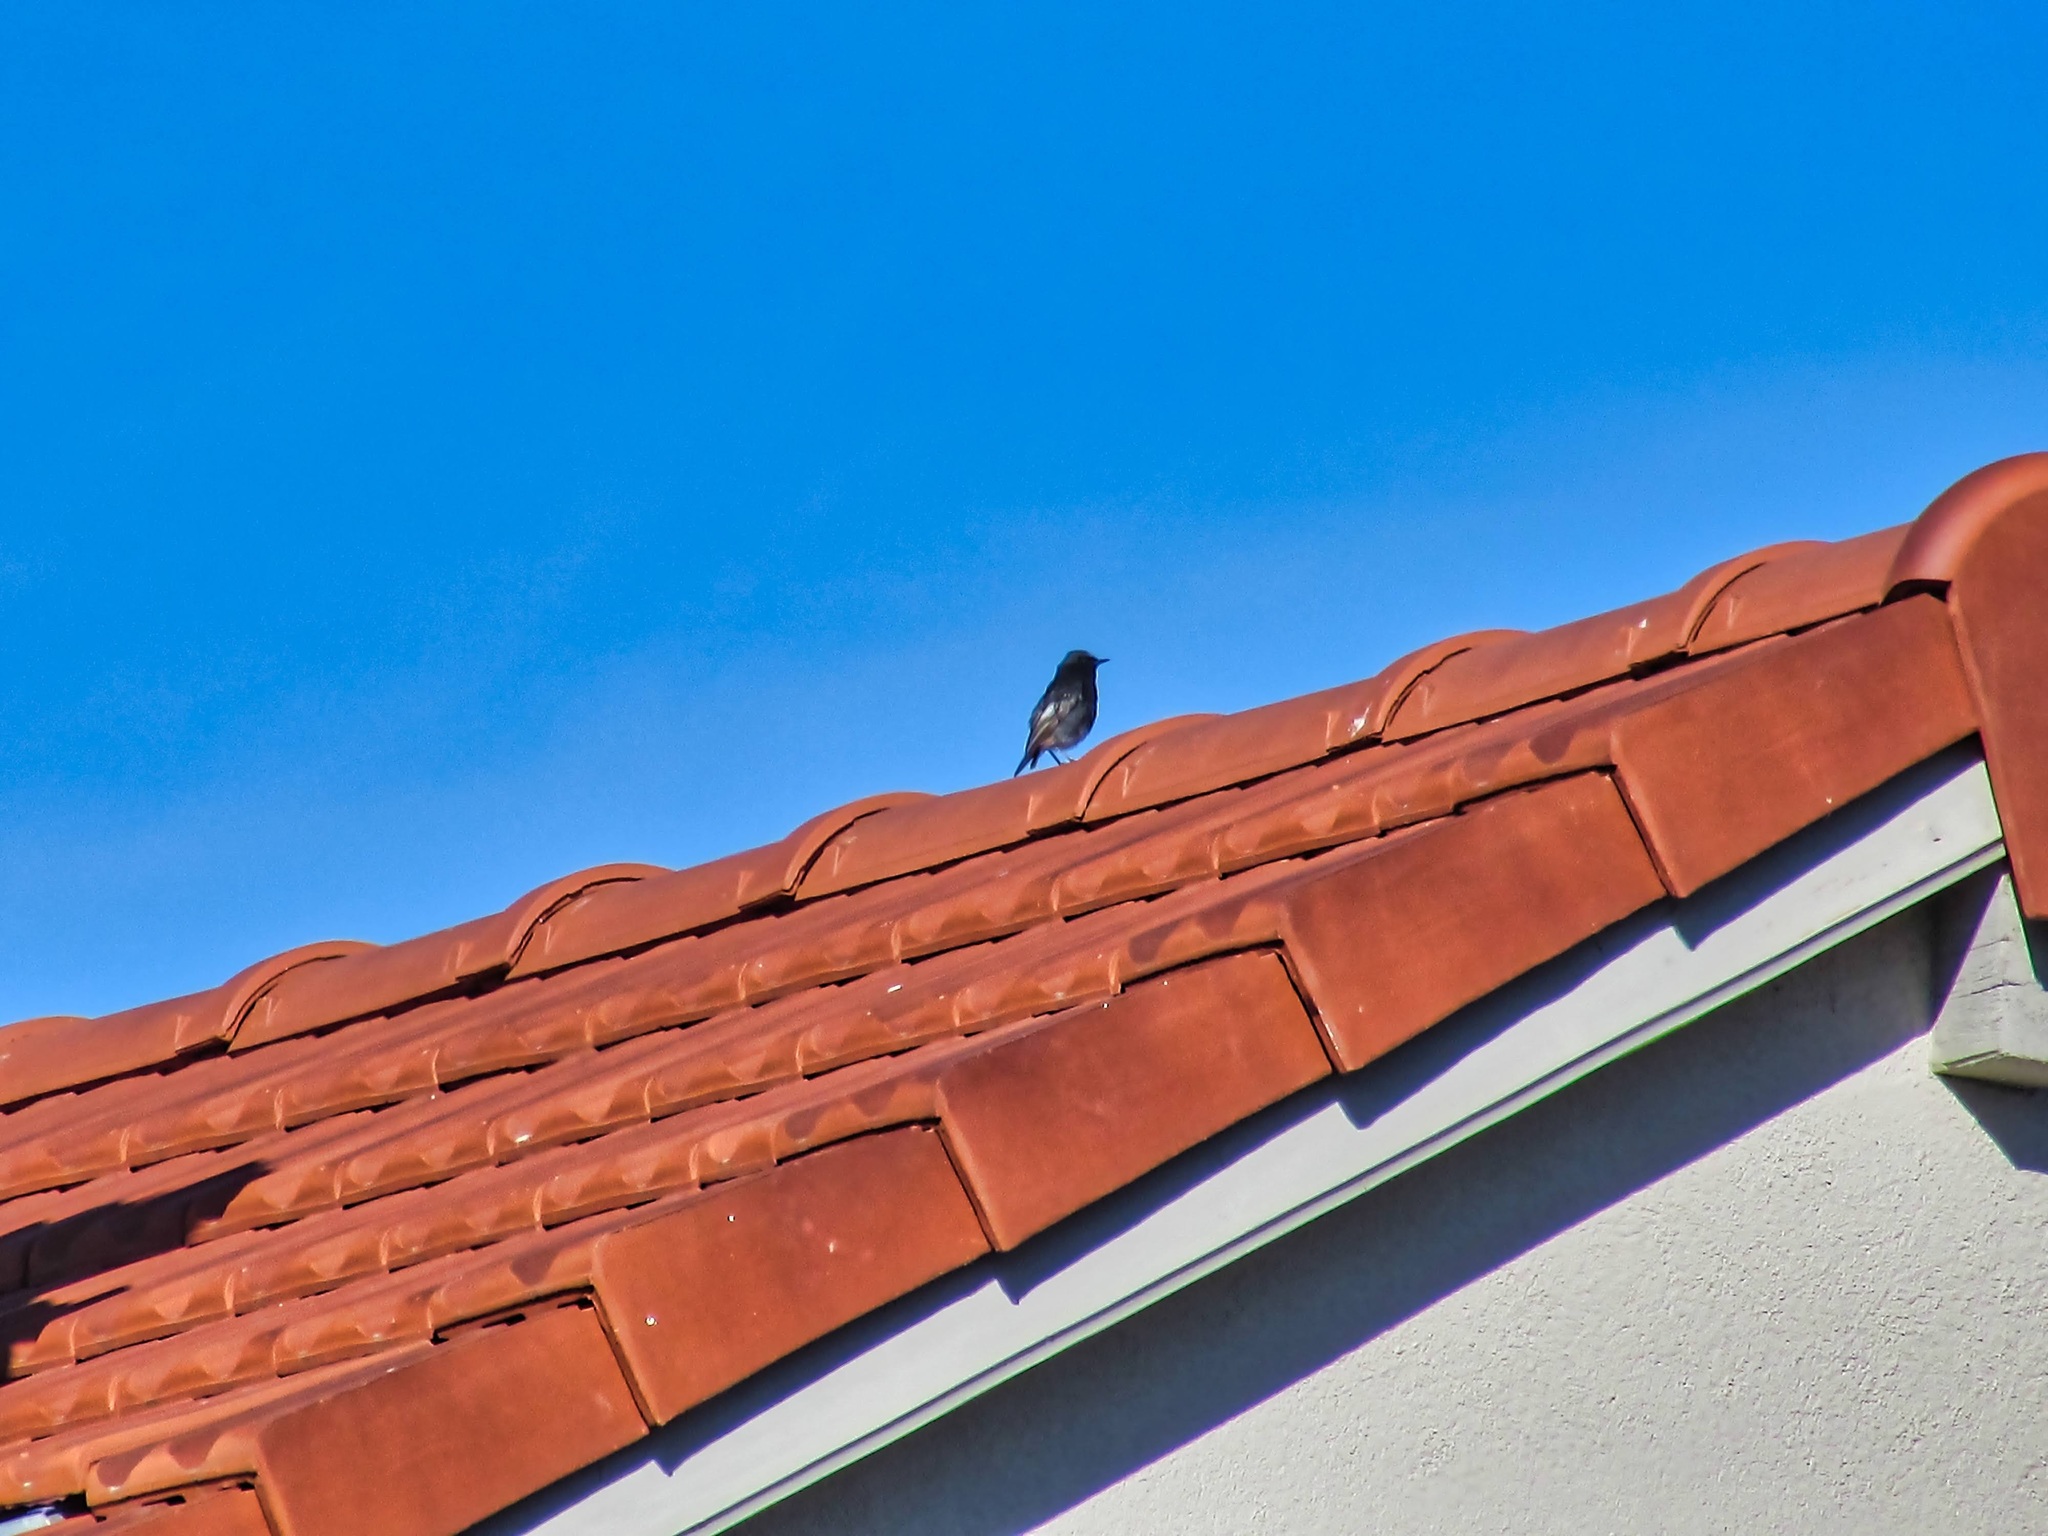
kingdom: Animalia
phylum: Chordata
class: Aves
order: Passeriformes
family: Muscicapidae
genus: Phoenicurus
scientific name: Phoenicurus ochruros
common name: Black redstart
